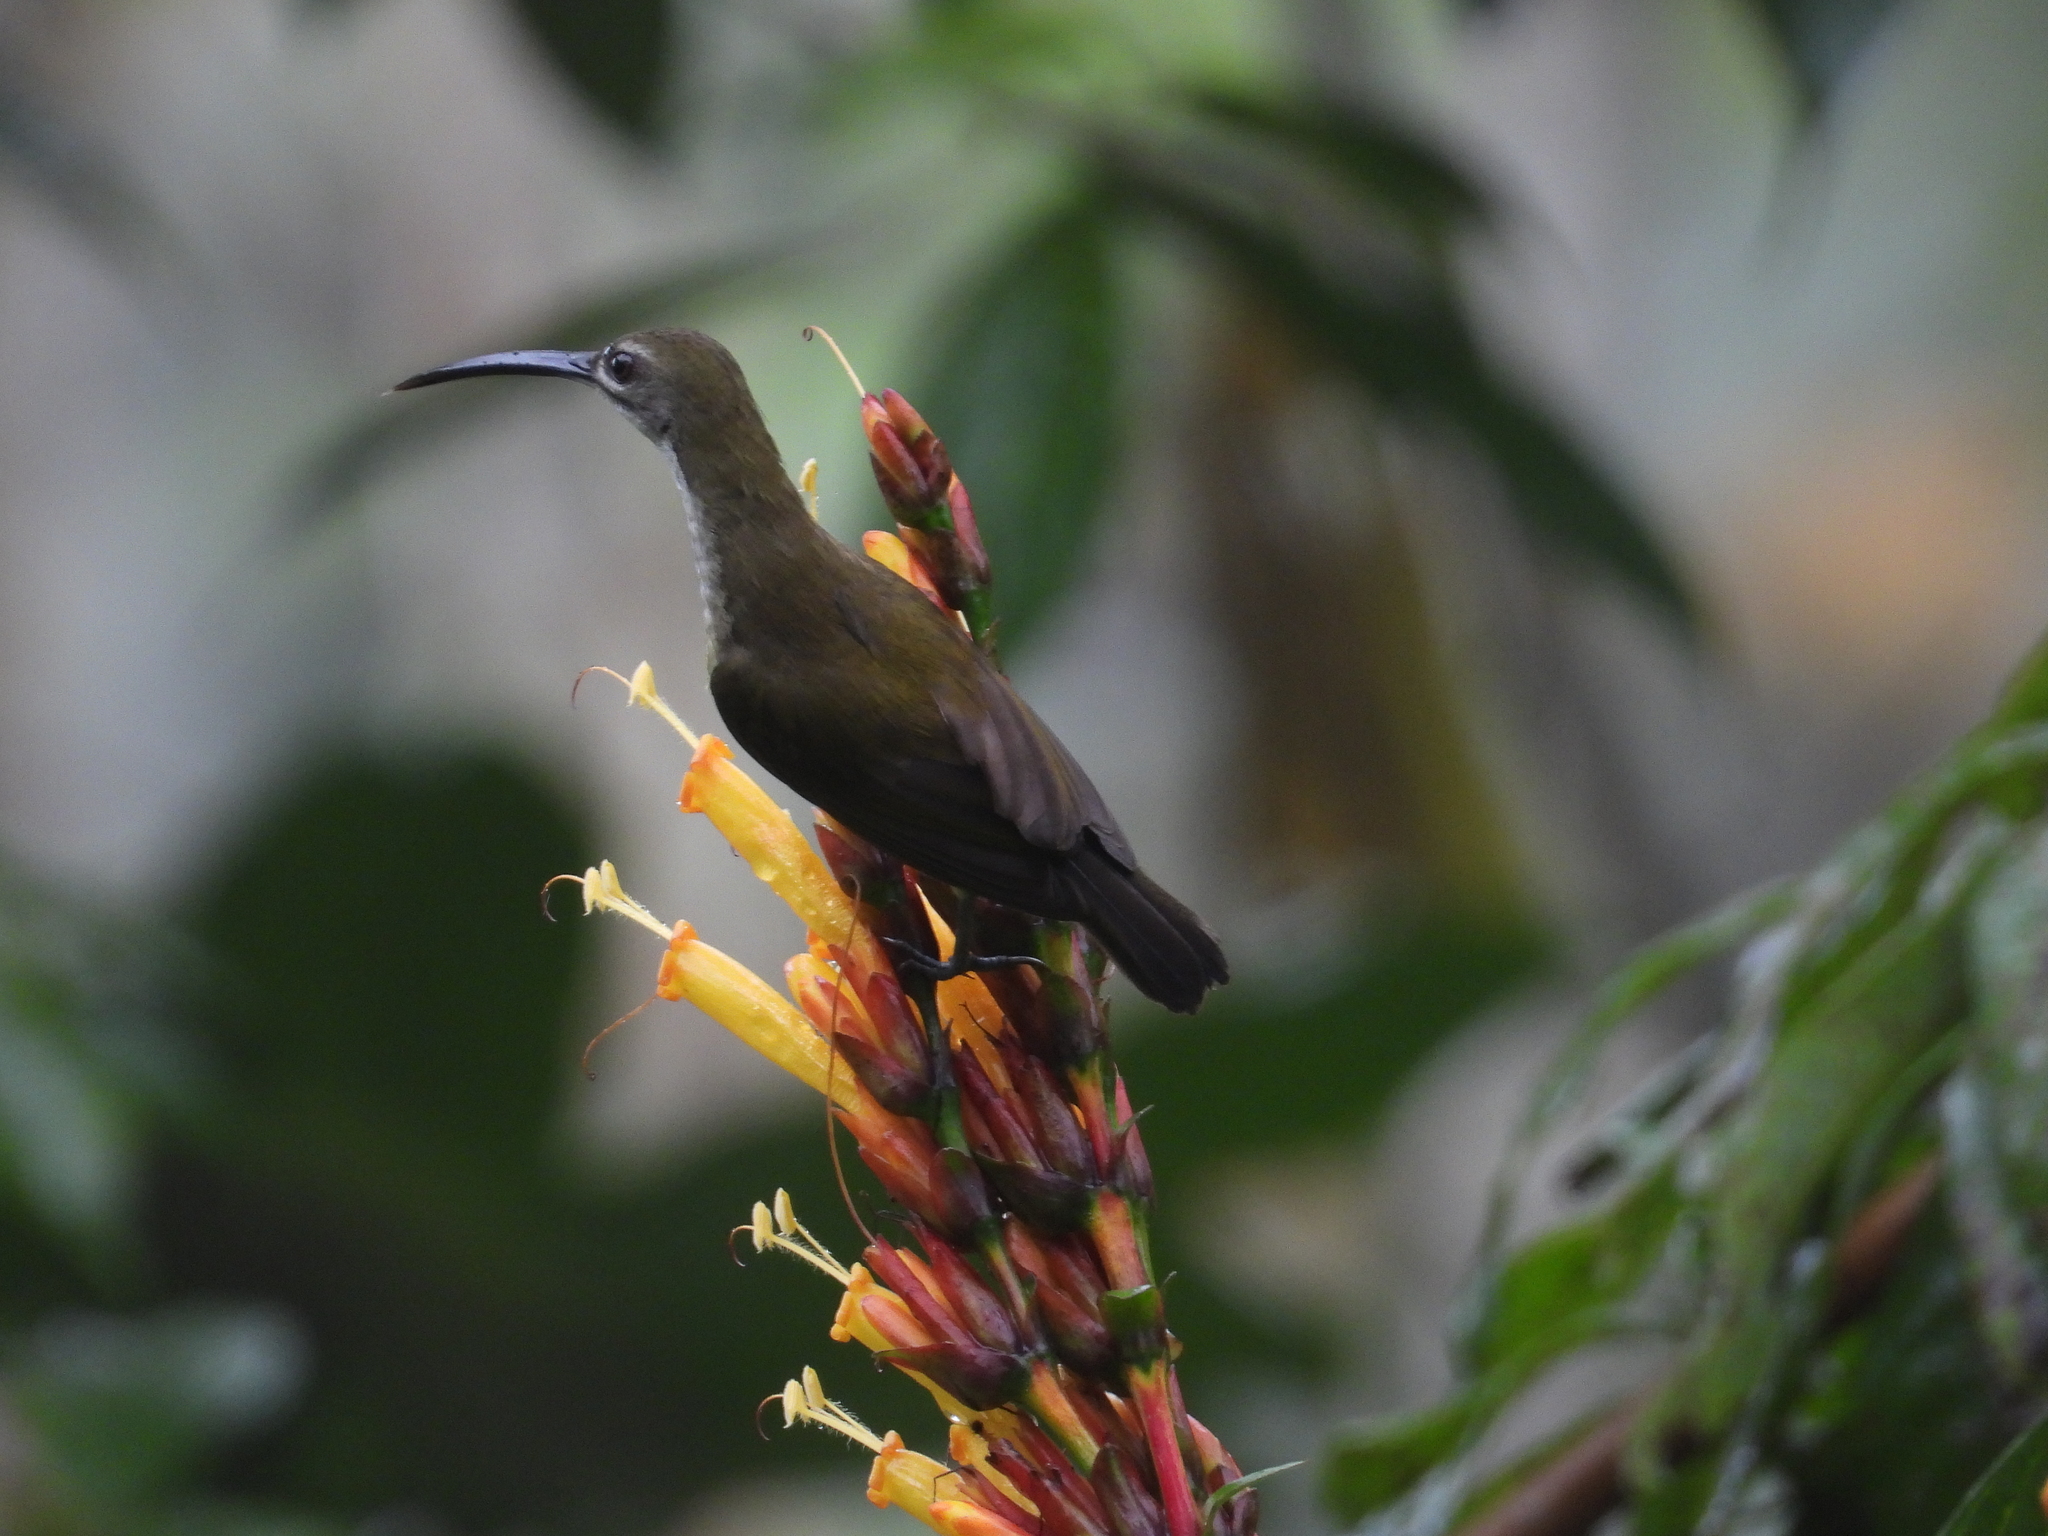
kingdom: Animalia
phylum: Chordata
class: Aves
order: Passeriformes
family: Nectariniidae
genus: Arachnothera
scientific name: Arachnothera longirostra
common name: Little spiderhunter
